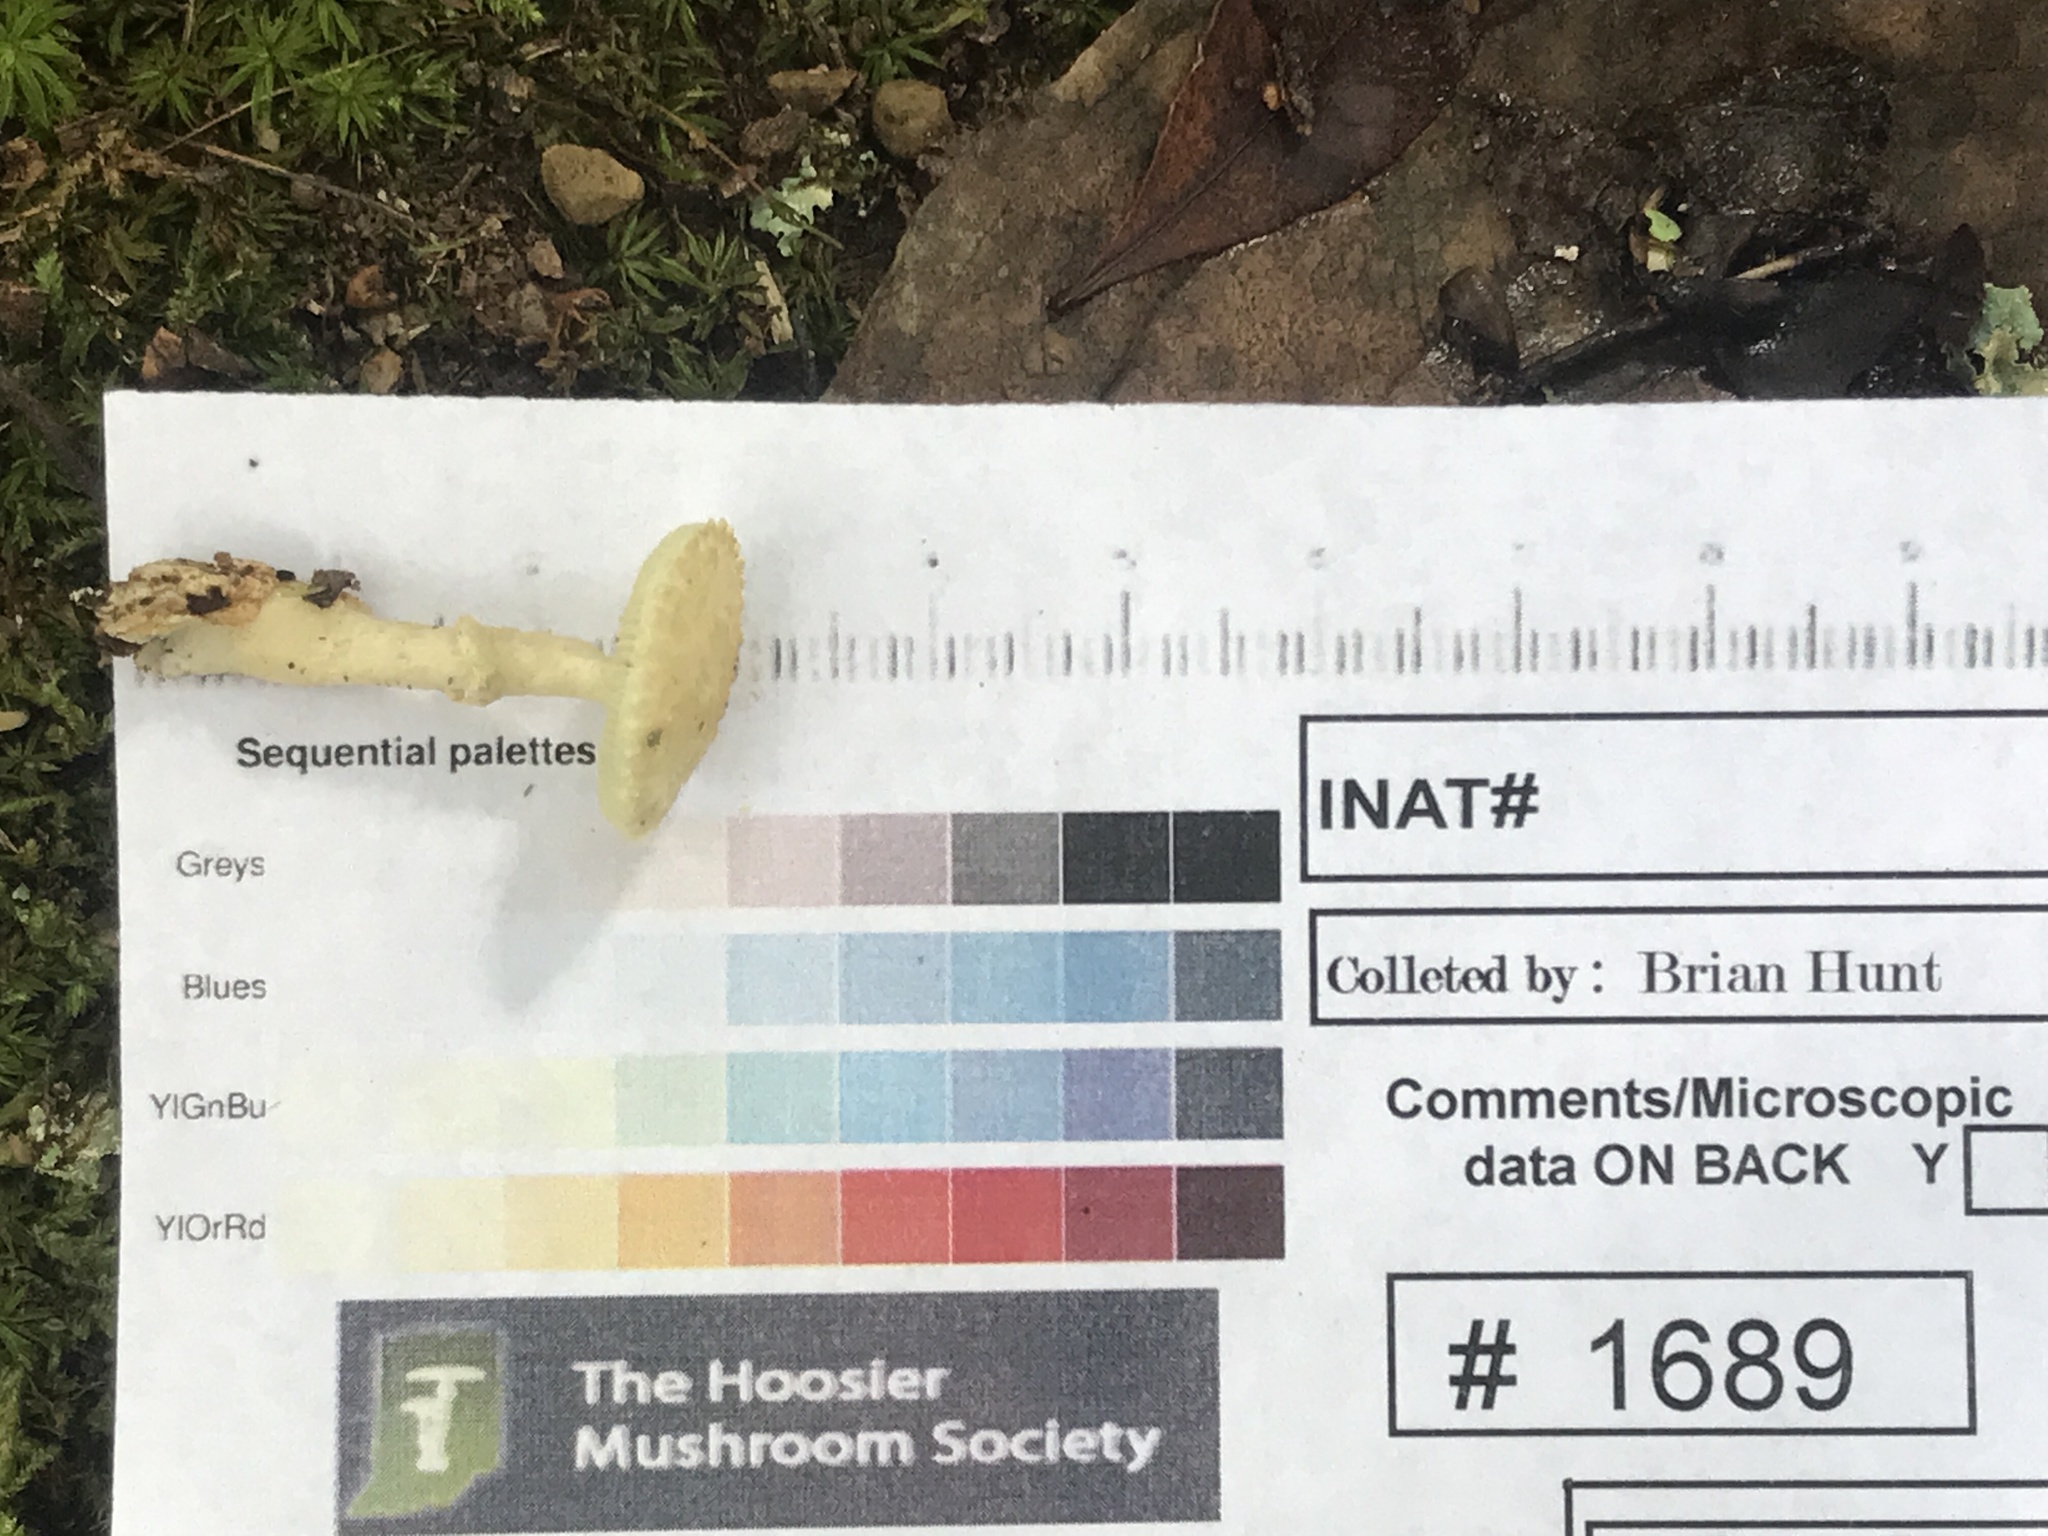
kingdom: Fungi
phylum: Basidiomycota
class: Agaricomycetes
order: Agaricales
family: Amanitaceae
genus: Amanita
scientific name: Amanita citrina
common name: False death-cap
